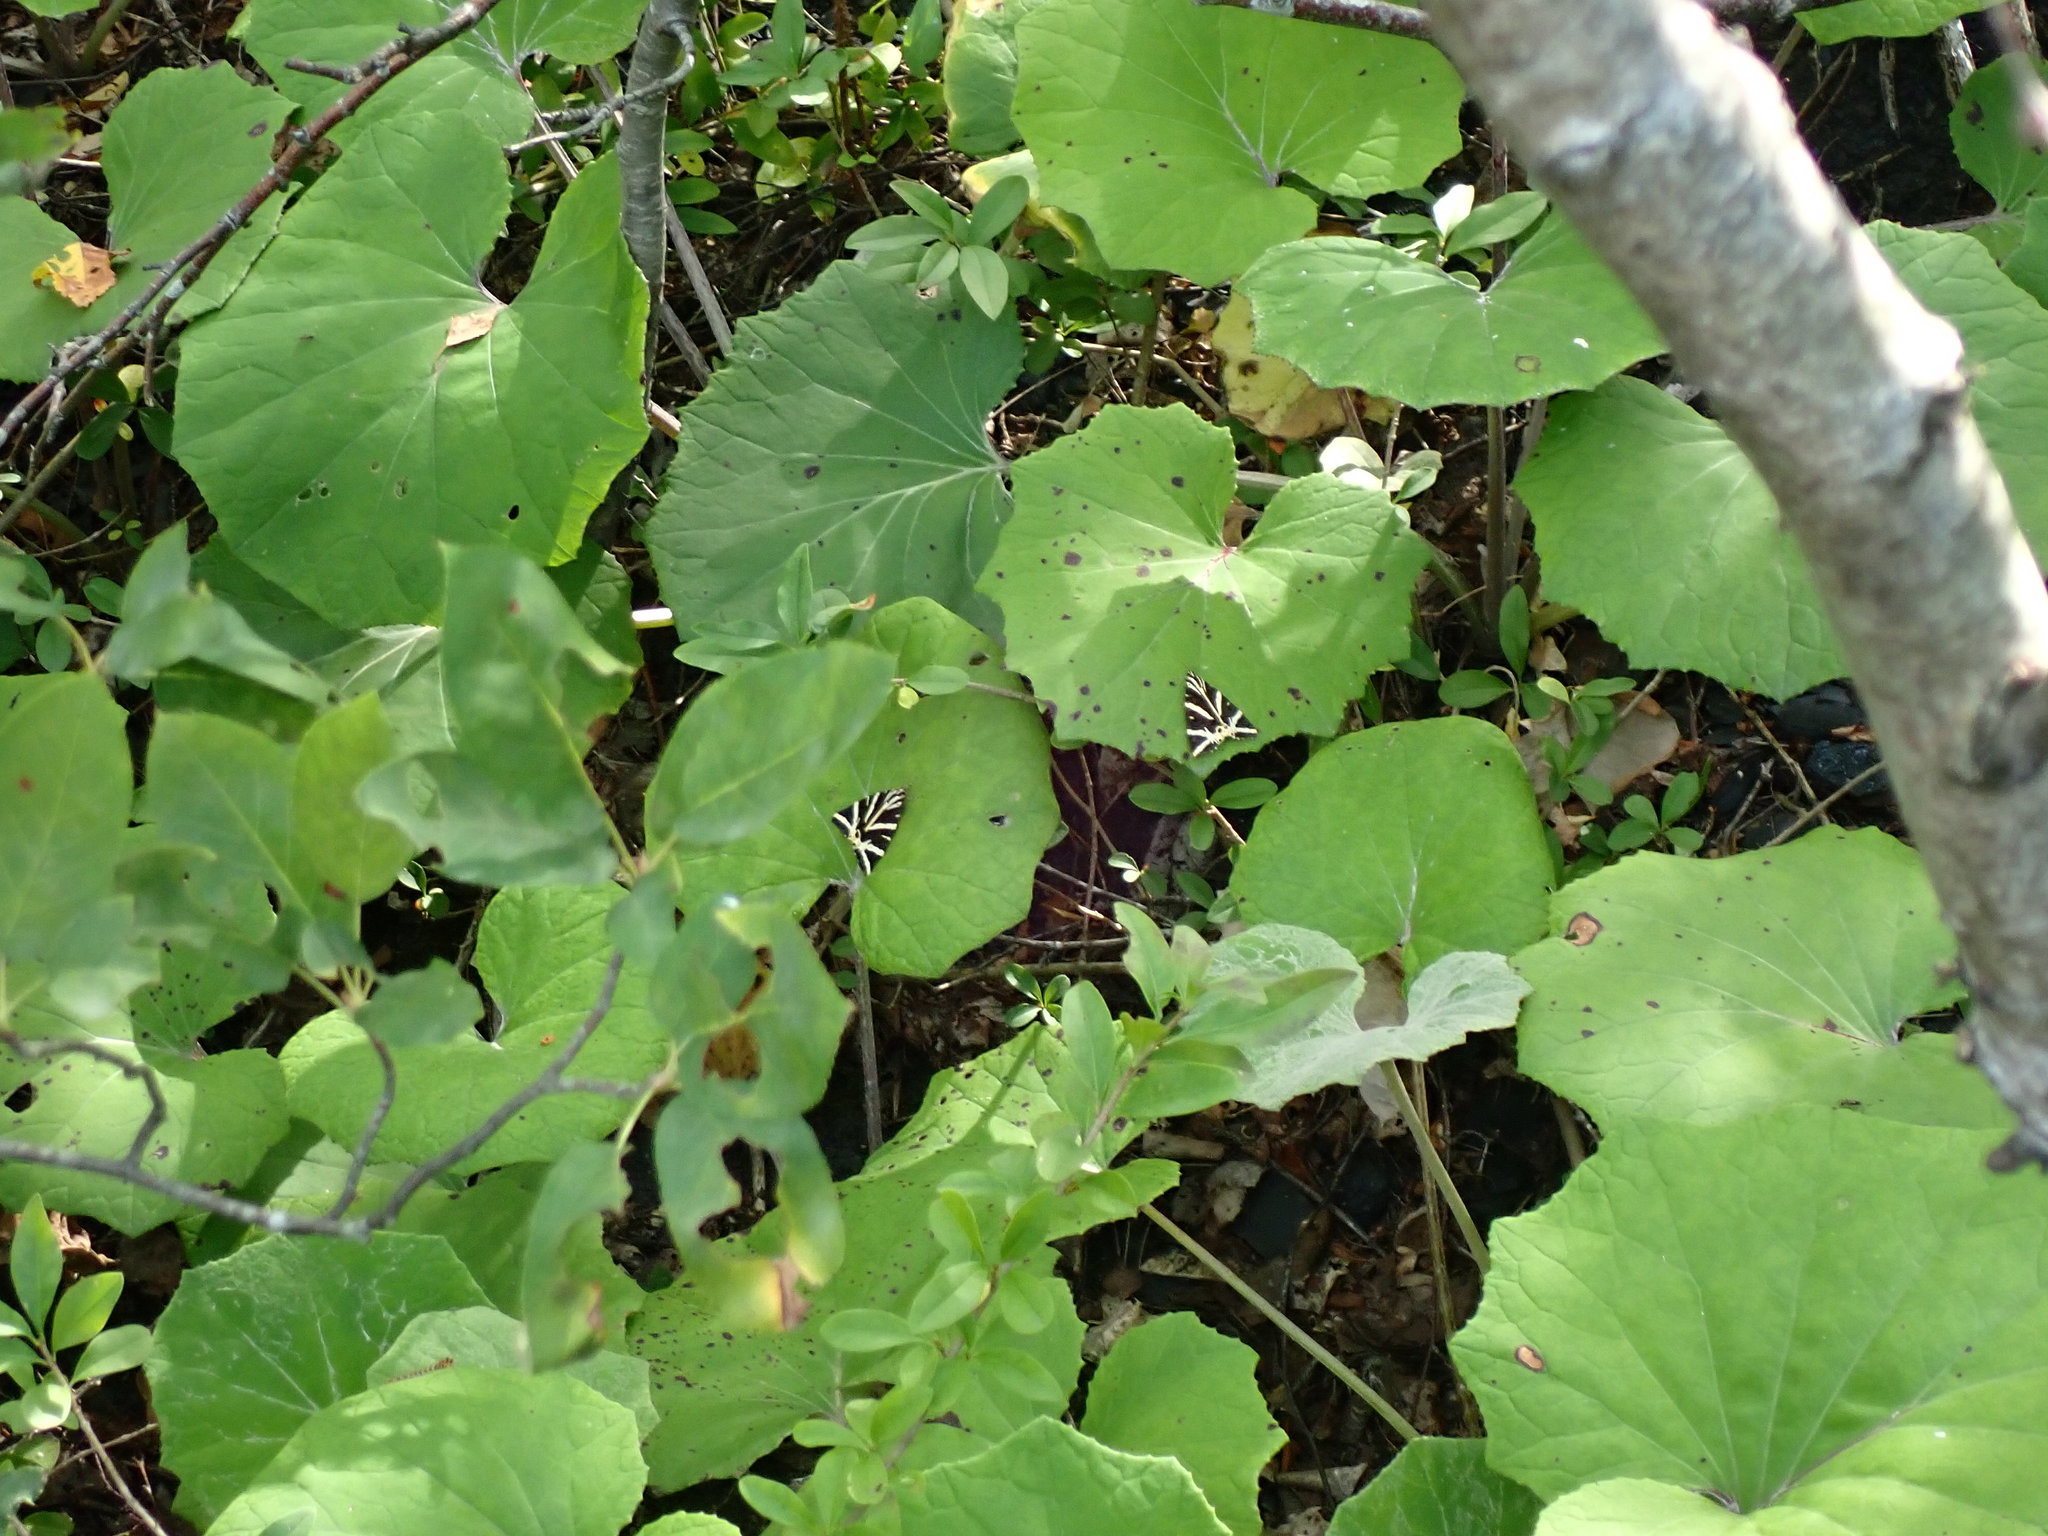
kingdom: Animalia
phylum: Arthropoda
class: Insecta
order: Lepidoptera
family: Erebidae
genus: Euplagia
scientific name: Euplagia quadripunctaria
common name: Jersey tiger
